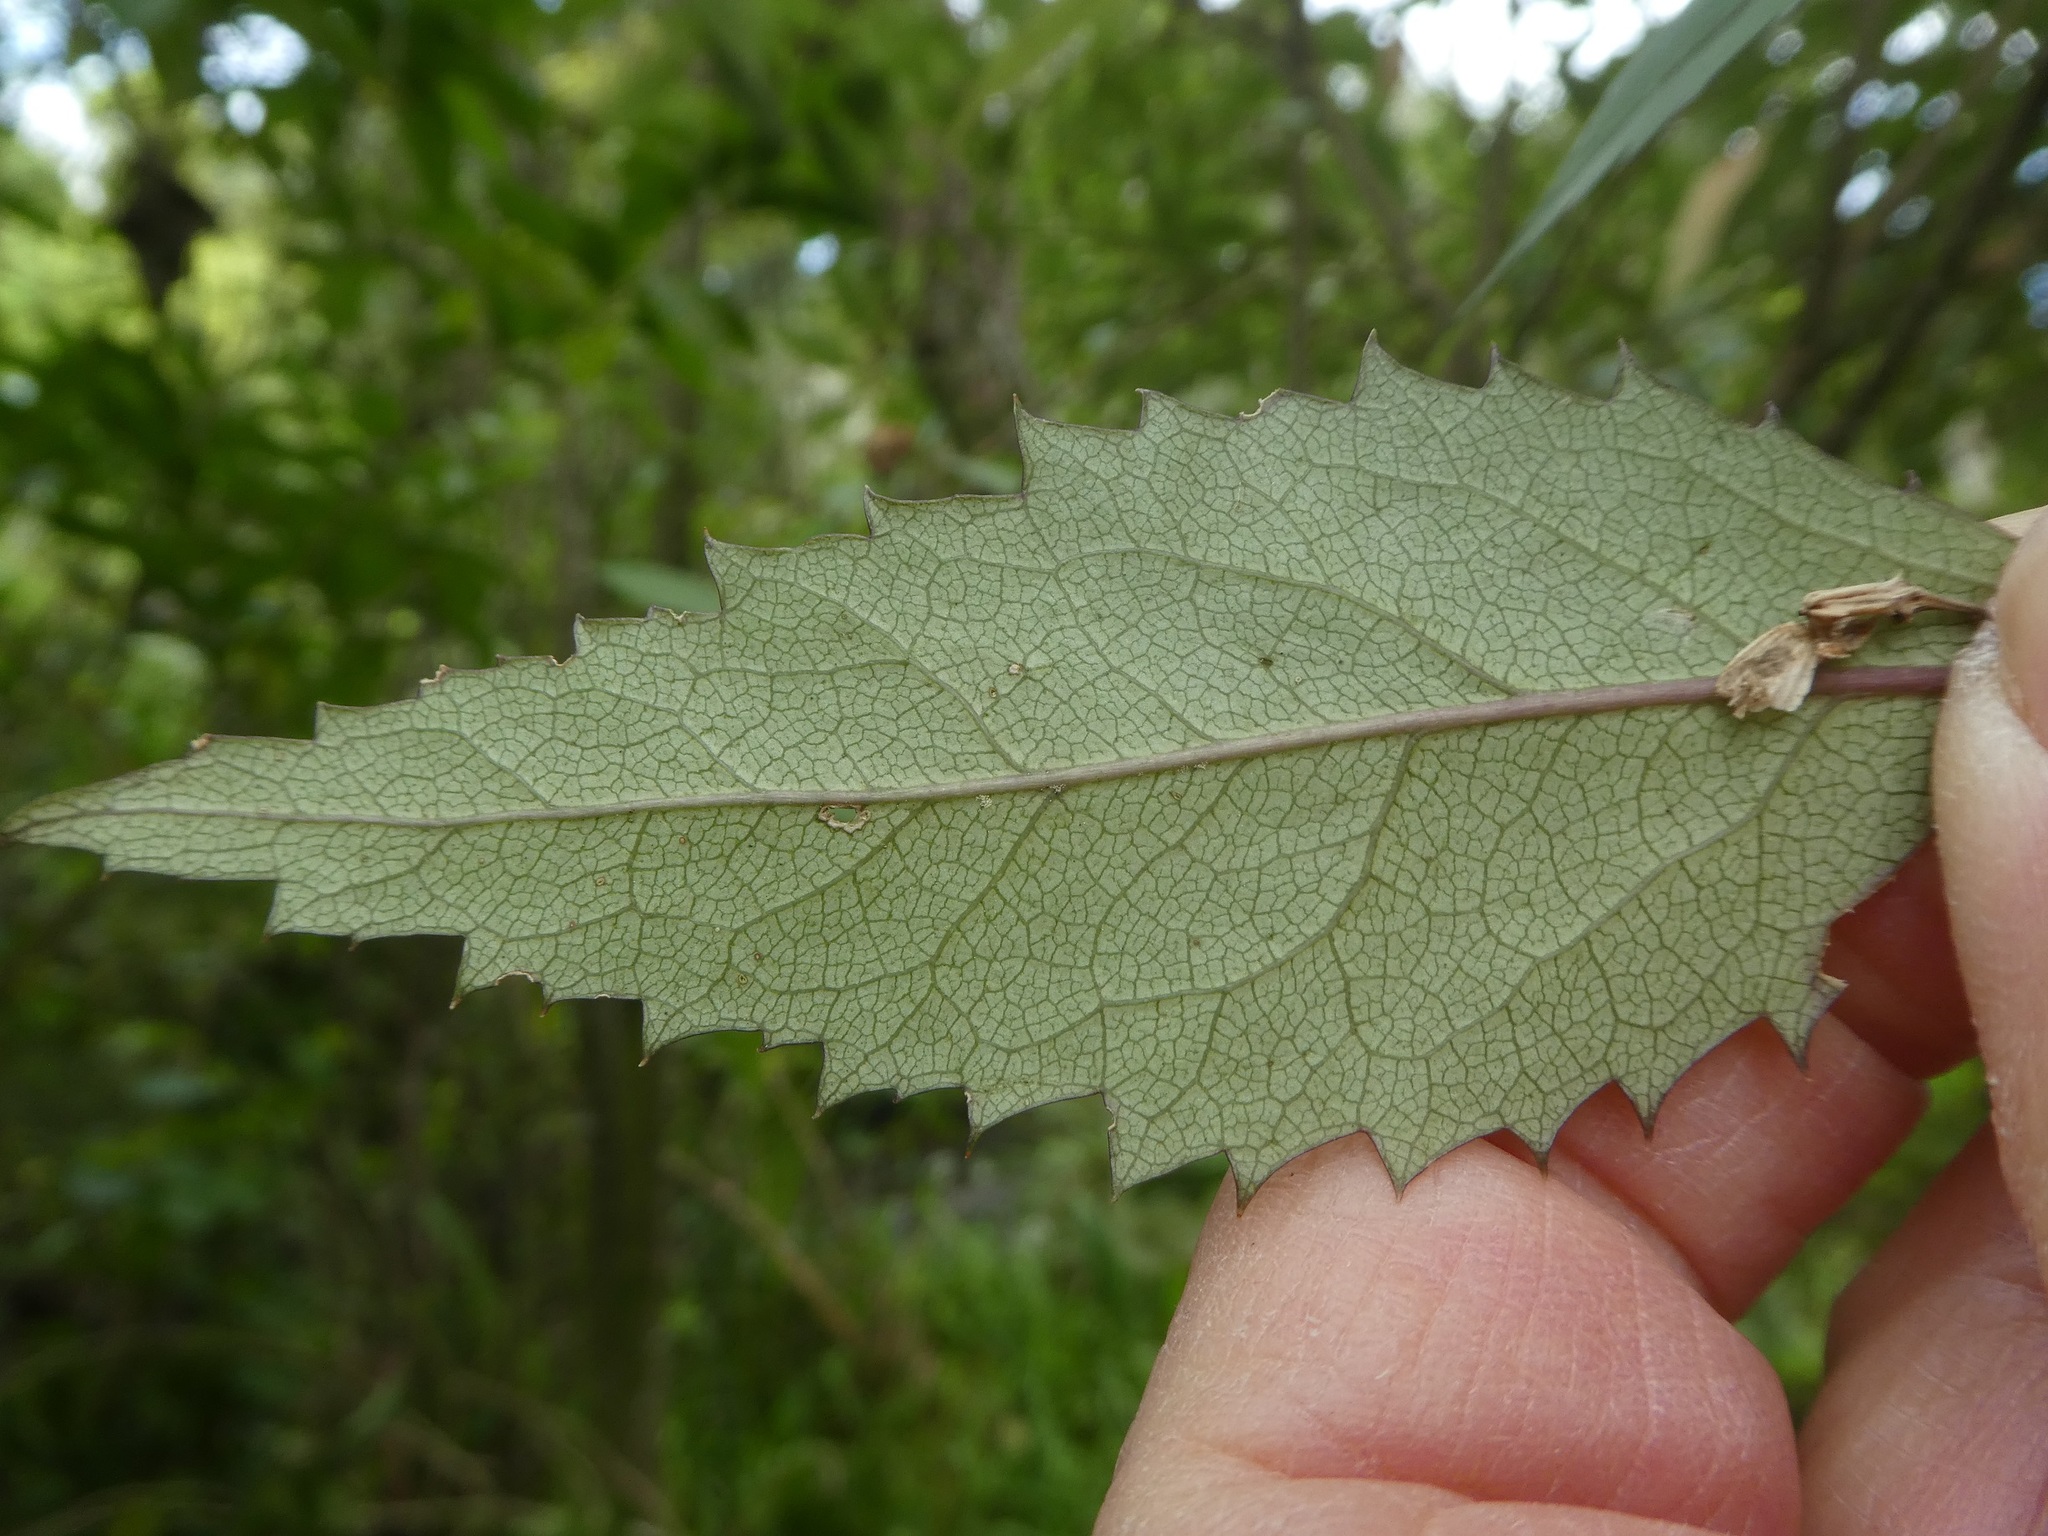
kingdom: Plantae
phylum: Tracheophyta
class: Magnoliopsida
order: Malvales
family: Malvaceae
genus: Hoheria
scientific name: Hoheria sexstylosa
